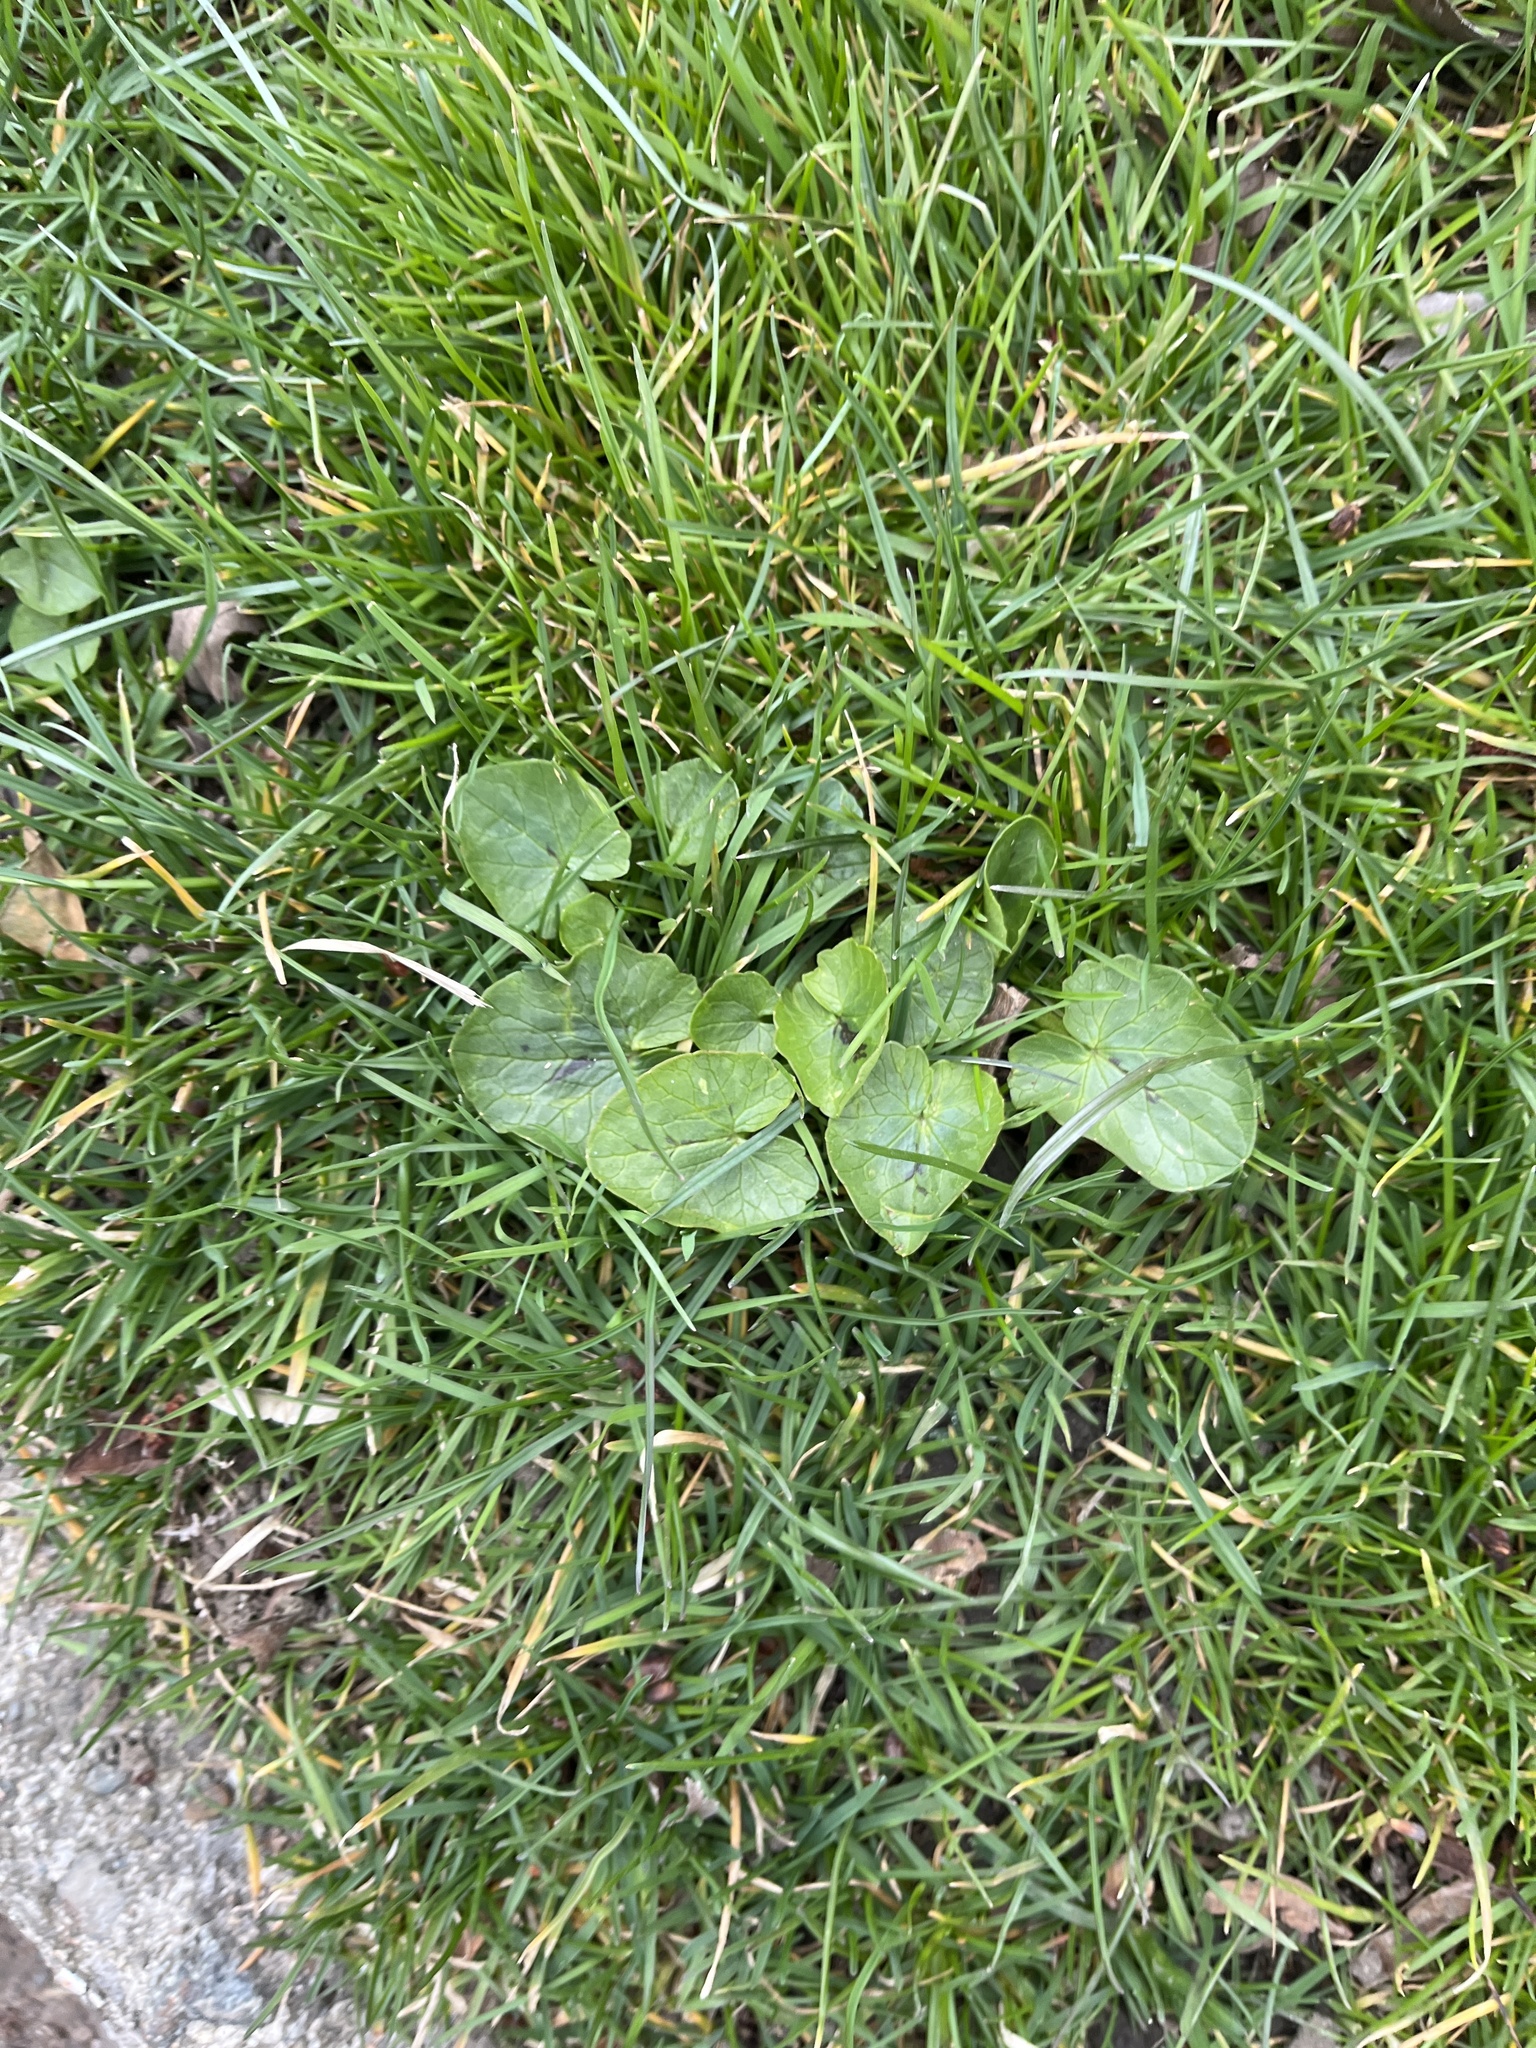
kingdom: Plantae
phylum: Tracheophyta
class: Magnoliopsida
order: Ranunculales
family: Ranunculaceae
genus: Ficaria
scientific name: Ficaria verna
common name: Lesser celandine
